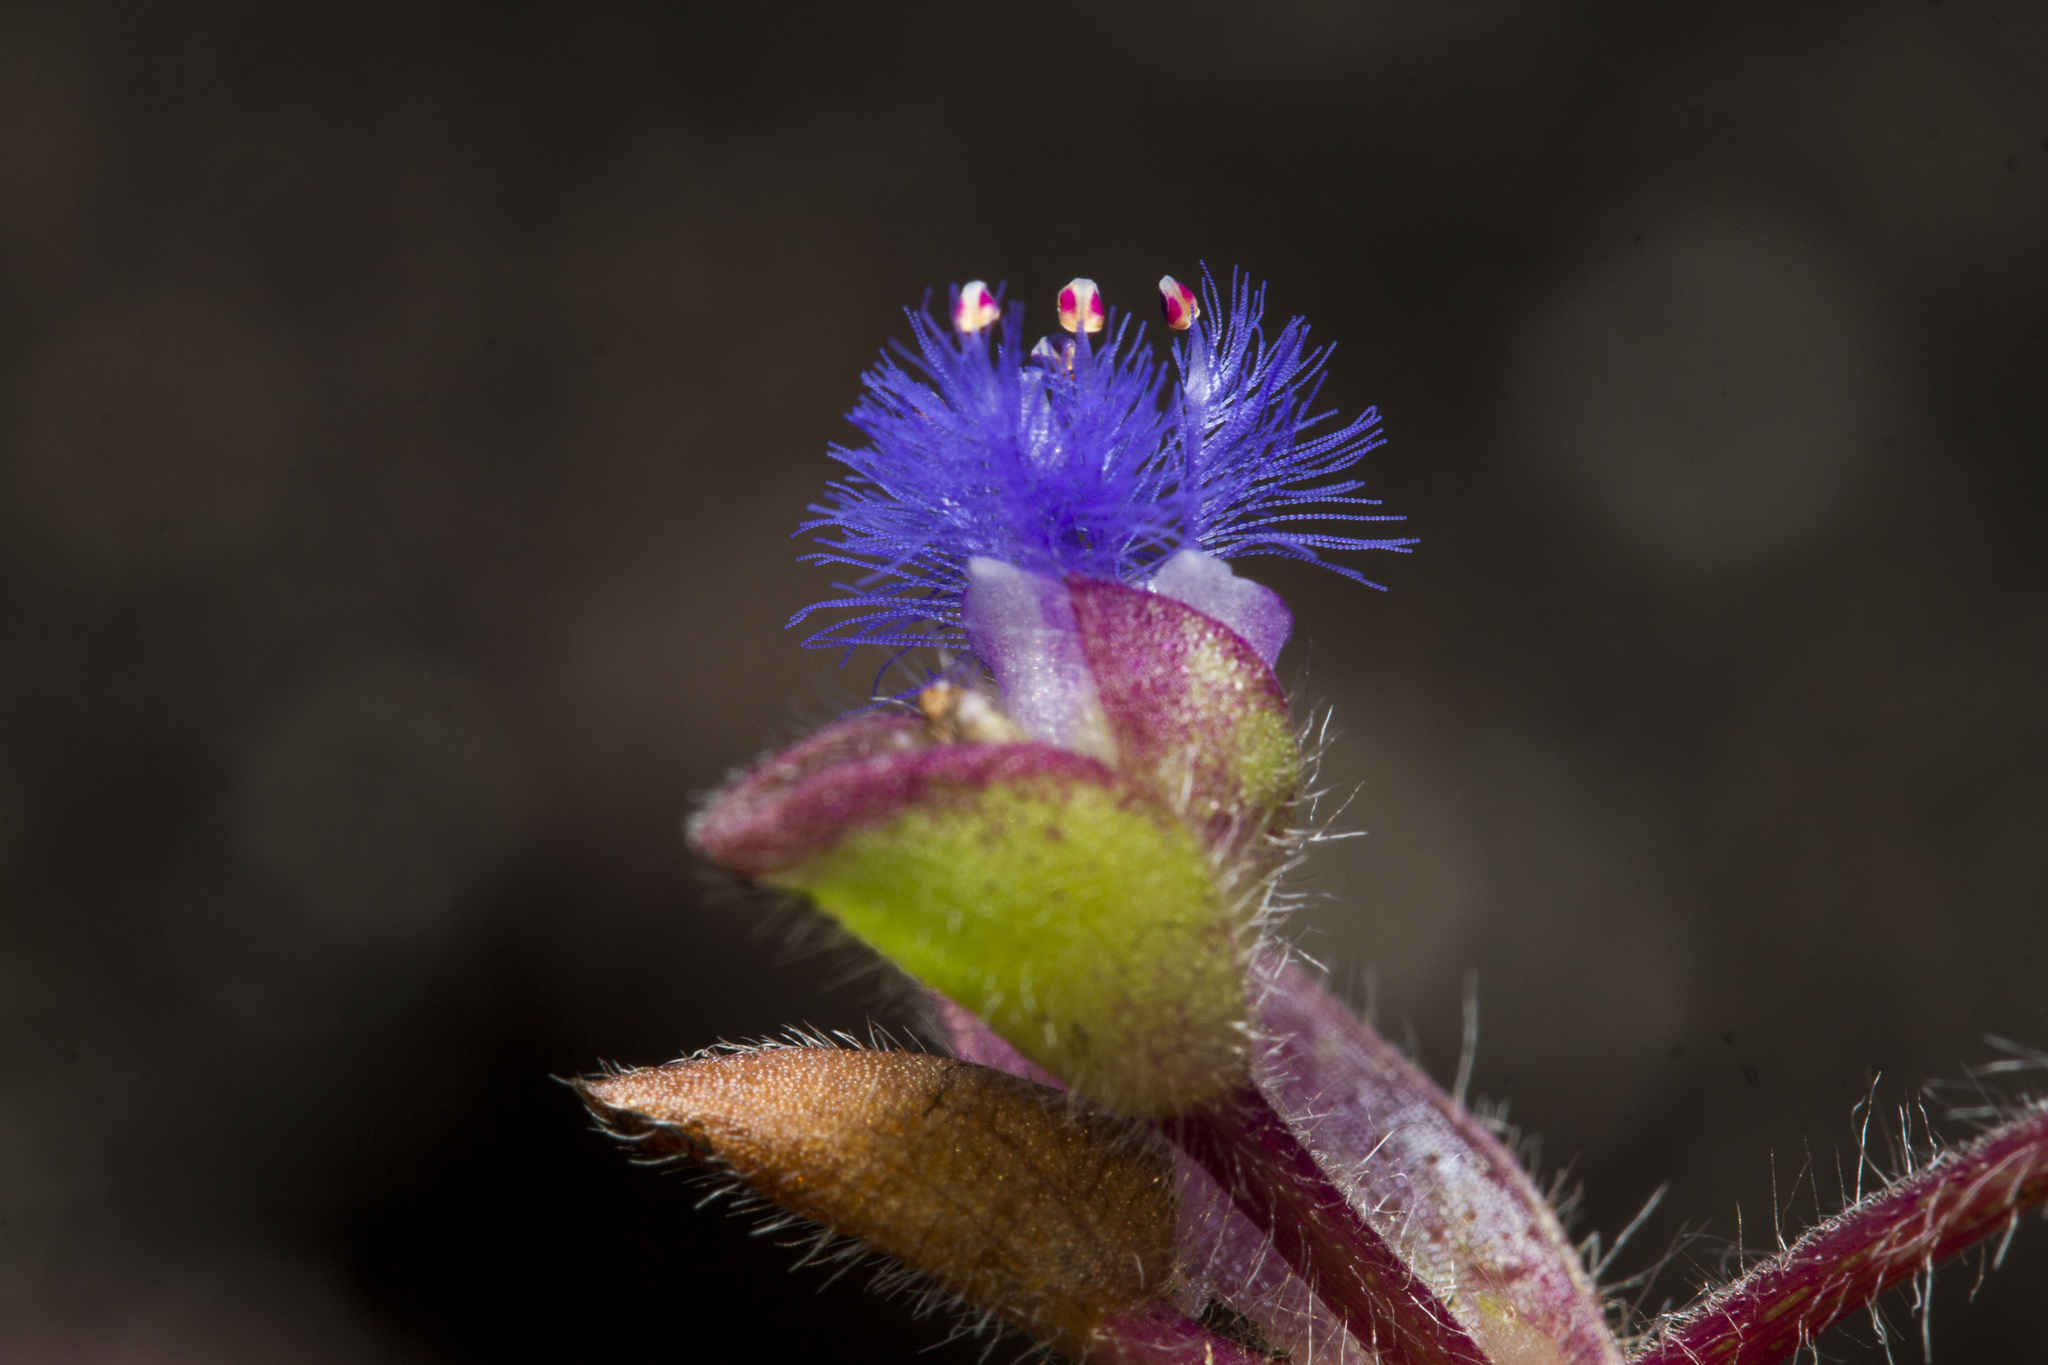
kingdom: Plantae
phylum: Tracheophyta
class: Liliopsida
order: Commelinales
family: Commelinaceae
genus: Cyanotis
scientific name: Cyanotis burmanniana
